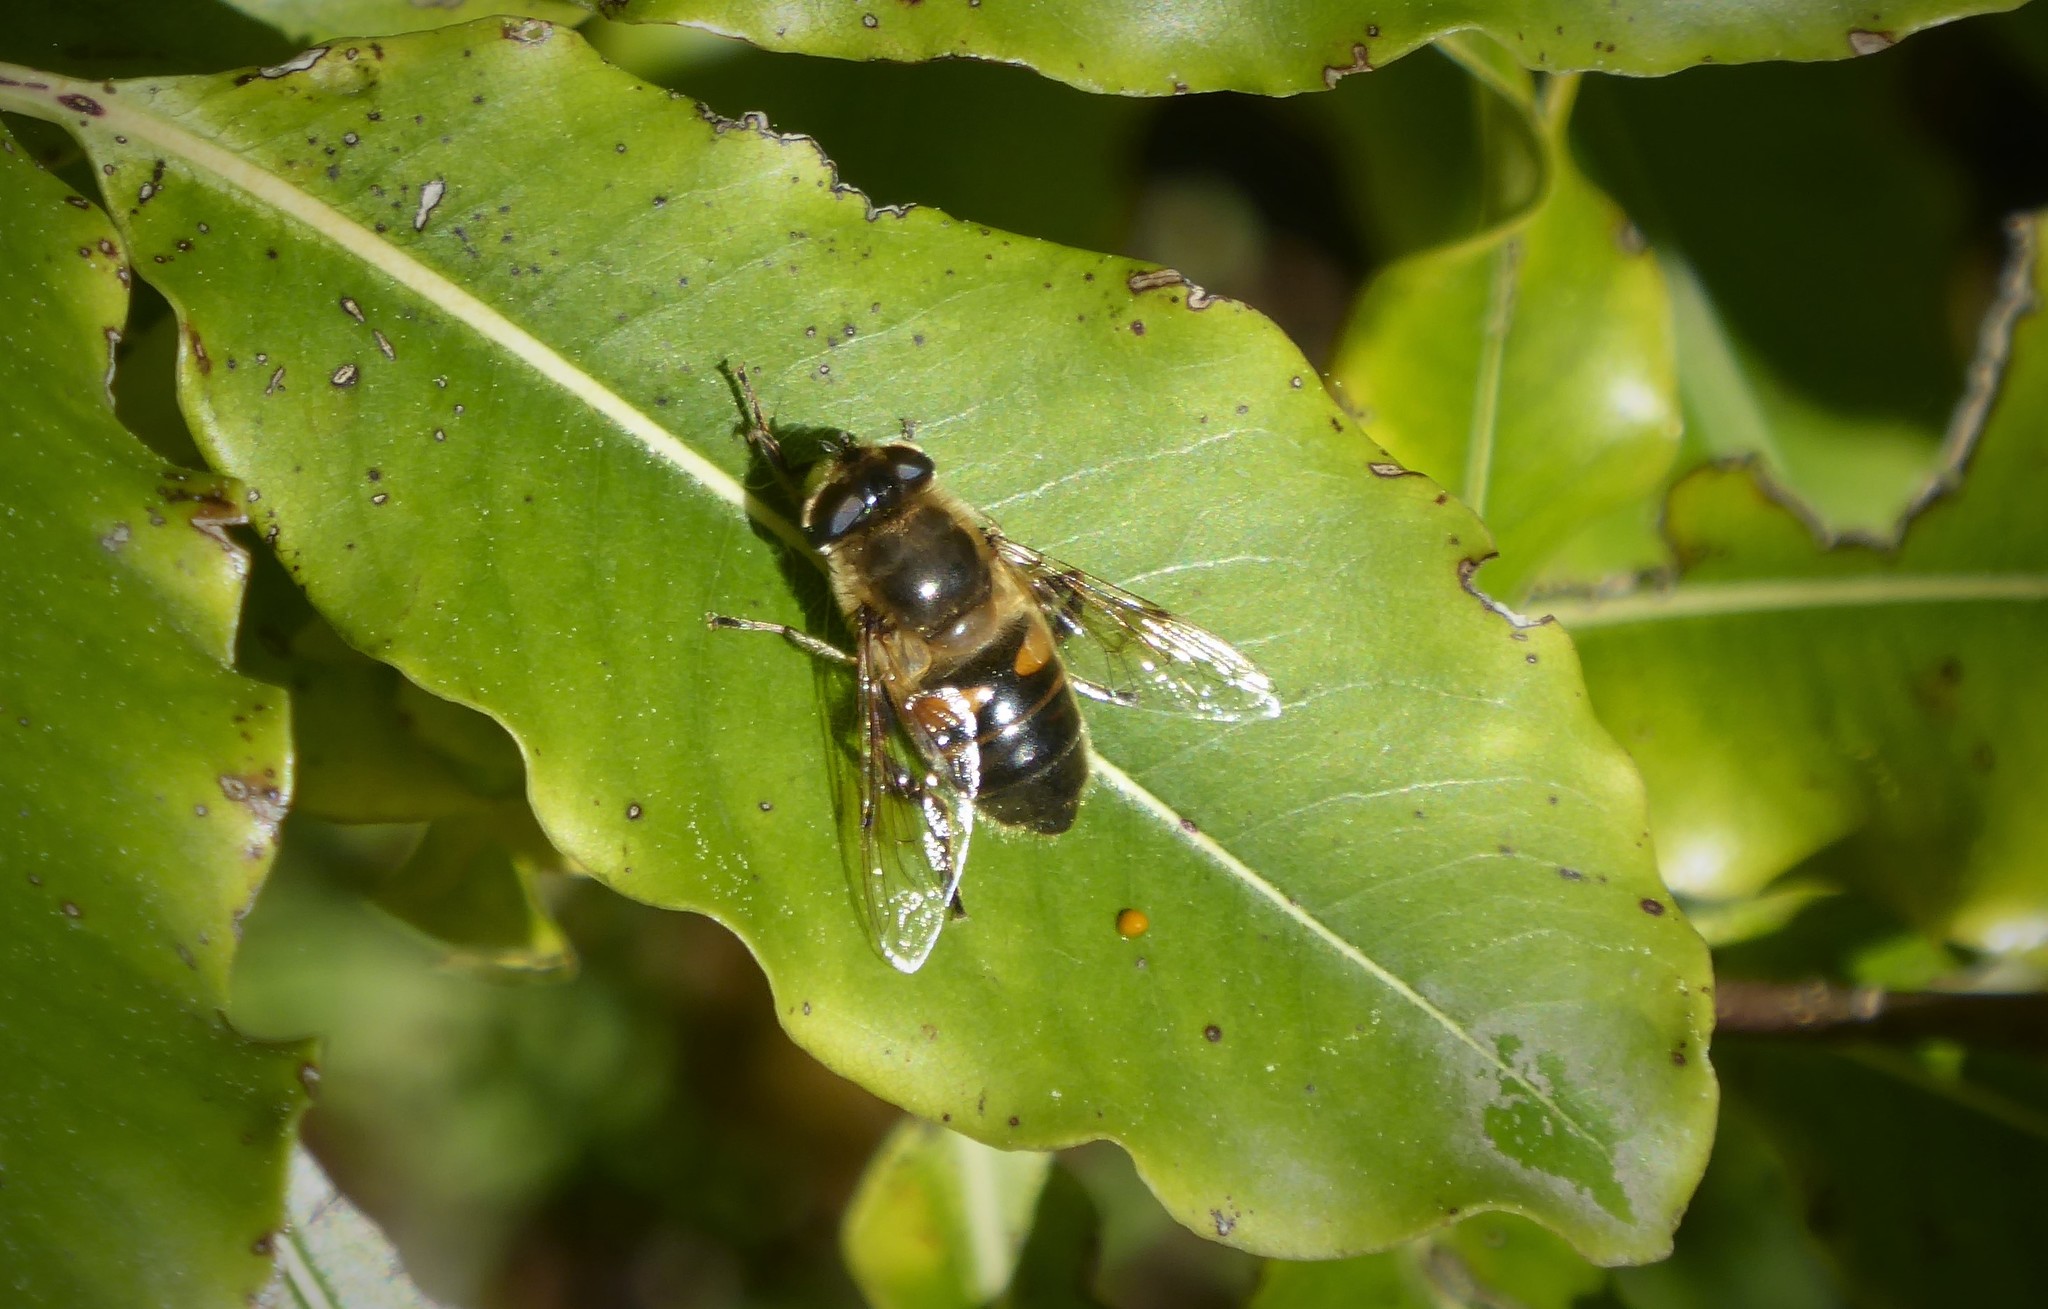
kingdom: Animalia
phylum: Arthropoda
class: Insecta
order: Diptera
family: Syrphidae
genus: Eristalis
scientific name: Eristalis tenax
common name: Drone fly
